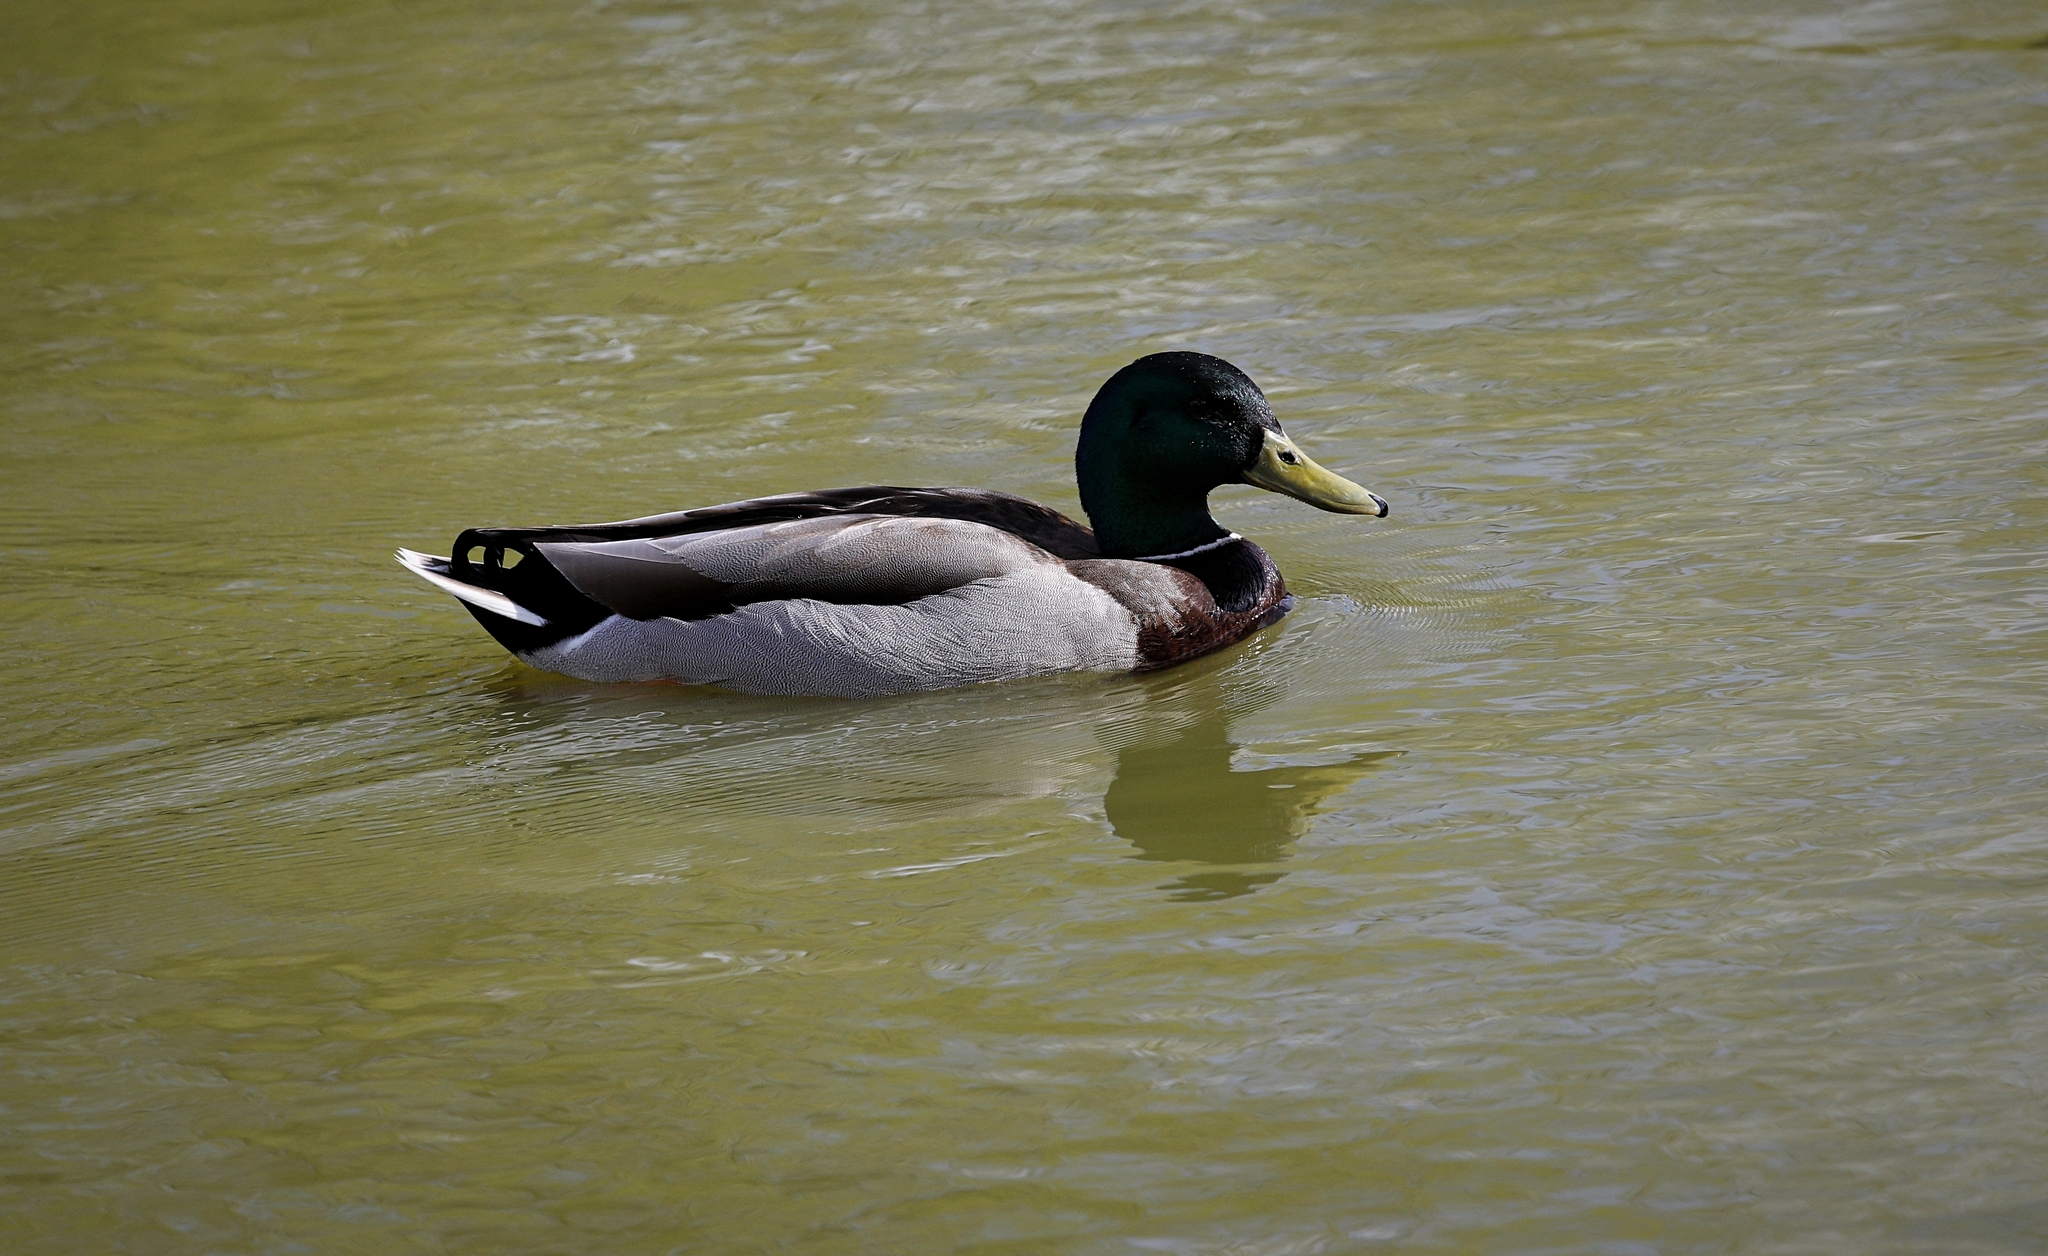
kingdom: Animalia
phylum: Chordata
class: Aves
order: Anseriformes
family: Anatidae
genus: Anas
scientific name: Anas platyrhynchos
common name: Mallard
